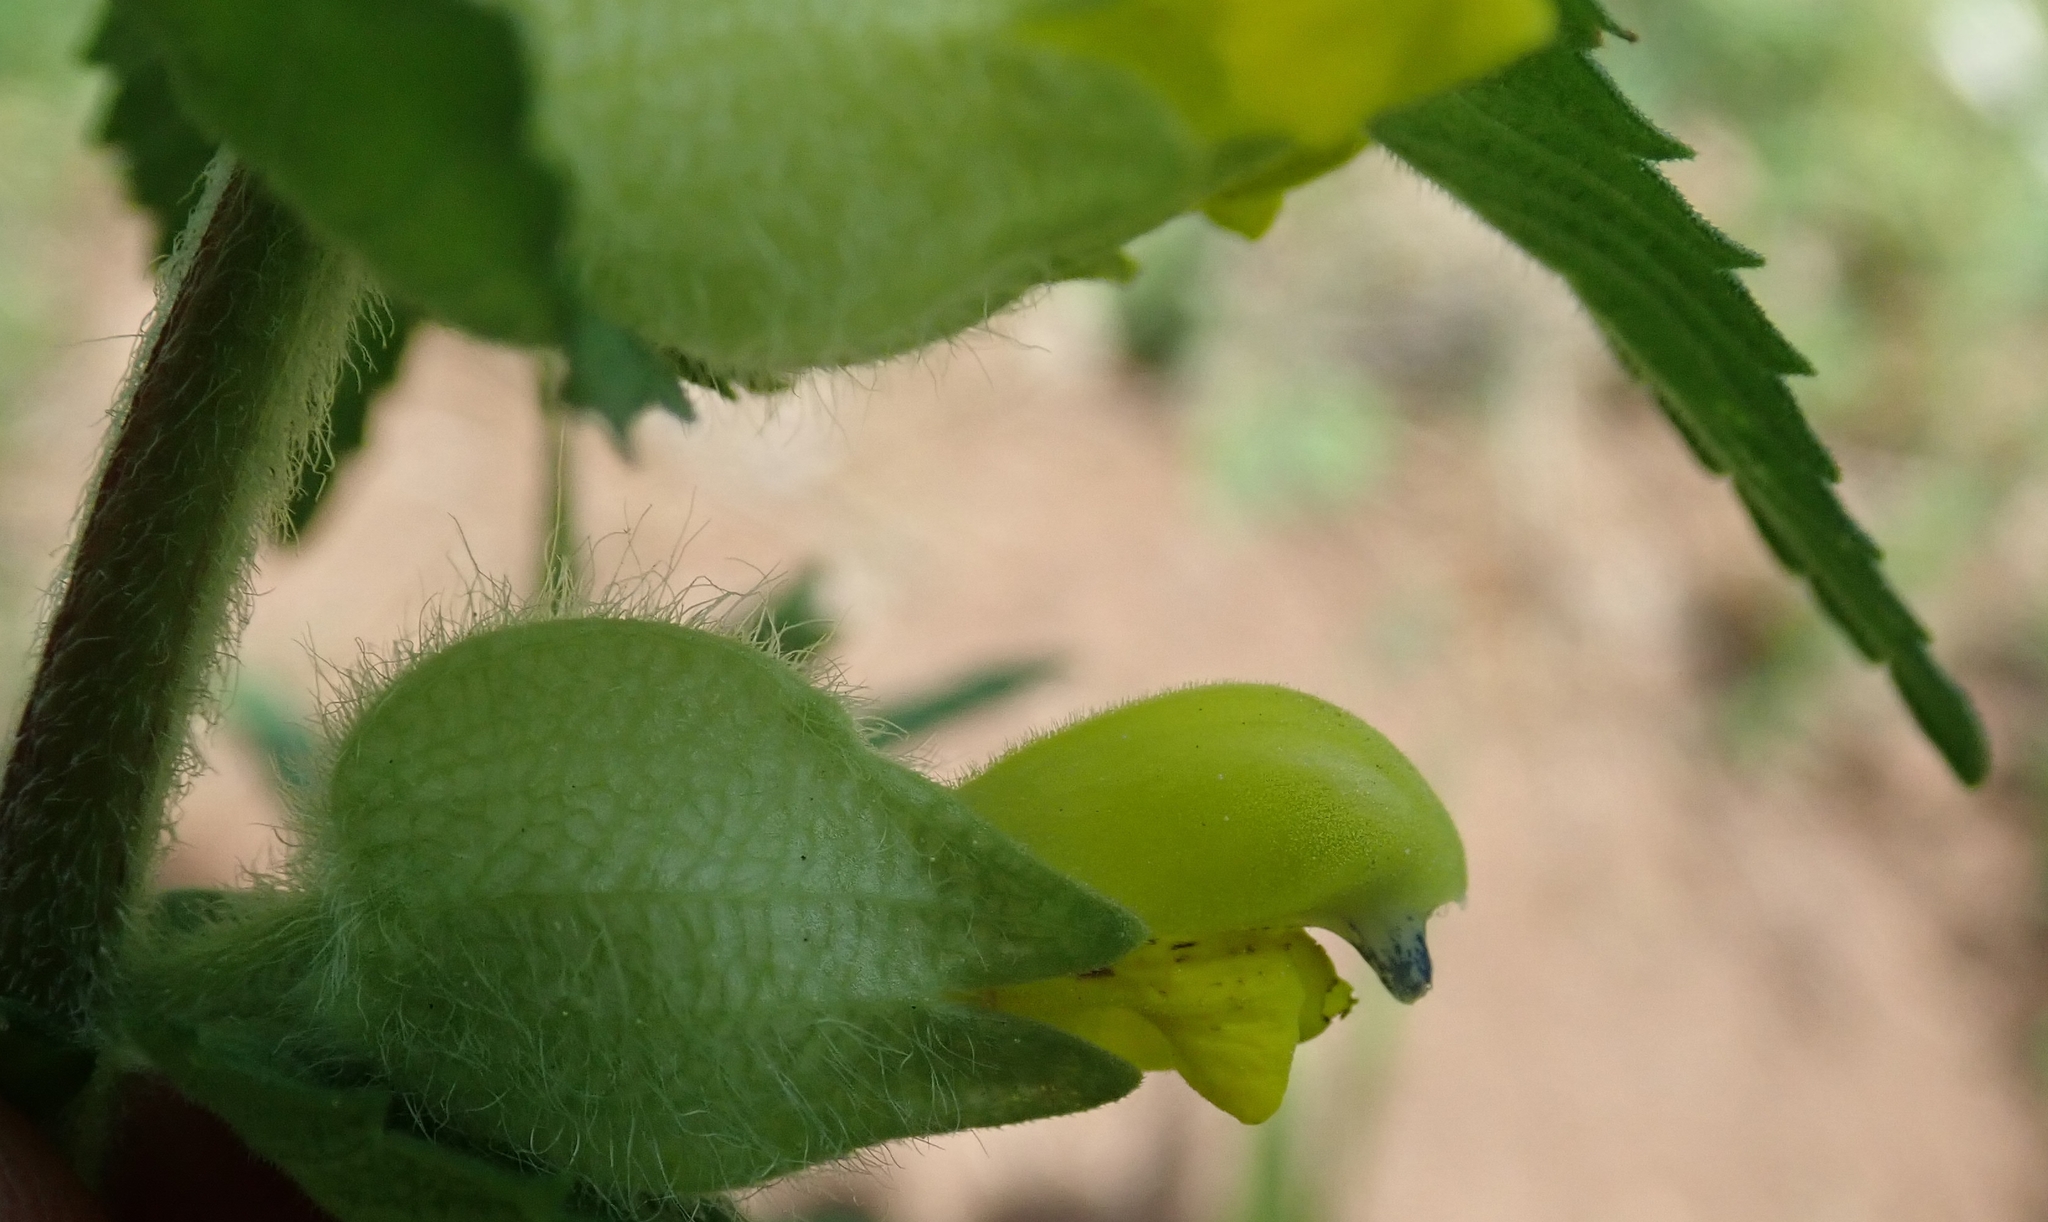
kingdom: Plantae
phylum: Tracheophyta
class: Magnoliopsida
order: Lamiales
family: Orobanchaceae
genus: Rhinanthus
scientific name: Rhinanthus alectorolophus
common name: Greater yellow-rattle
